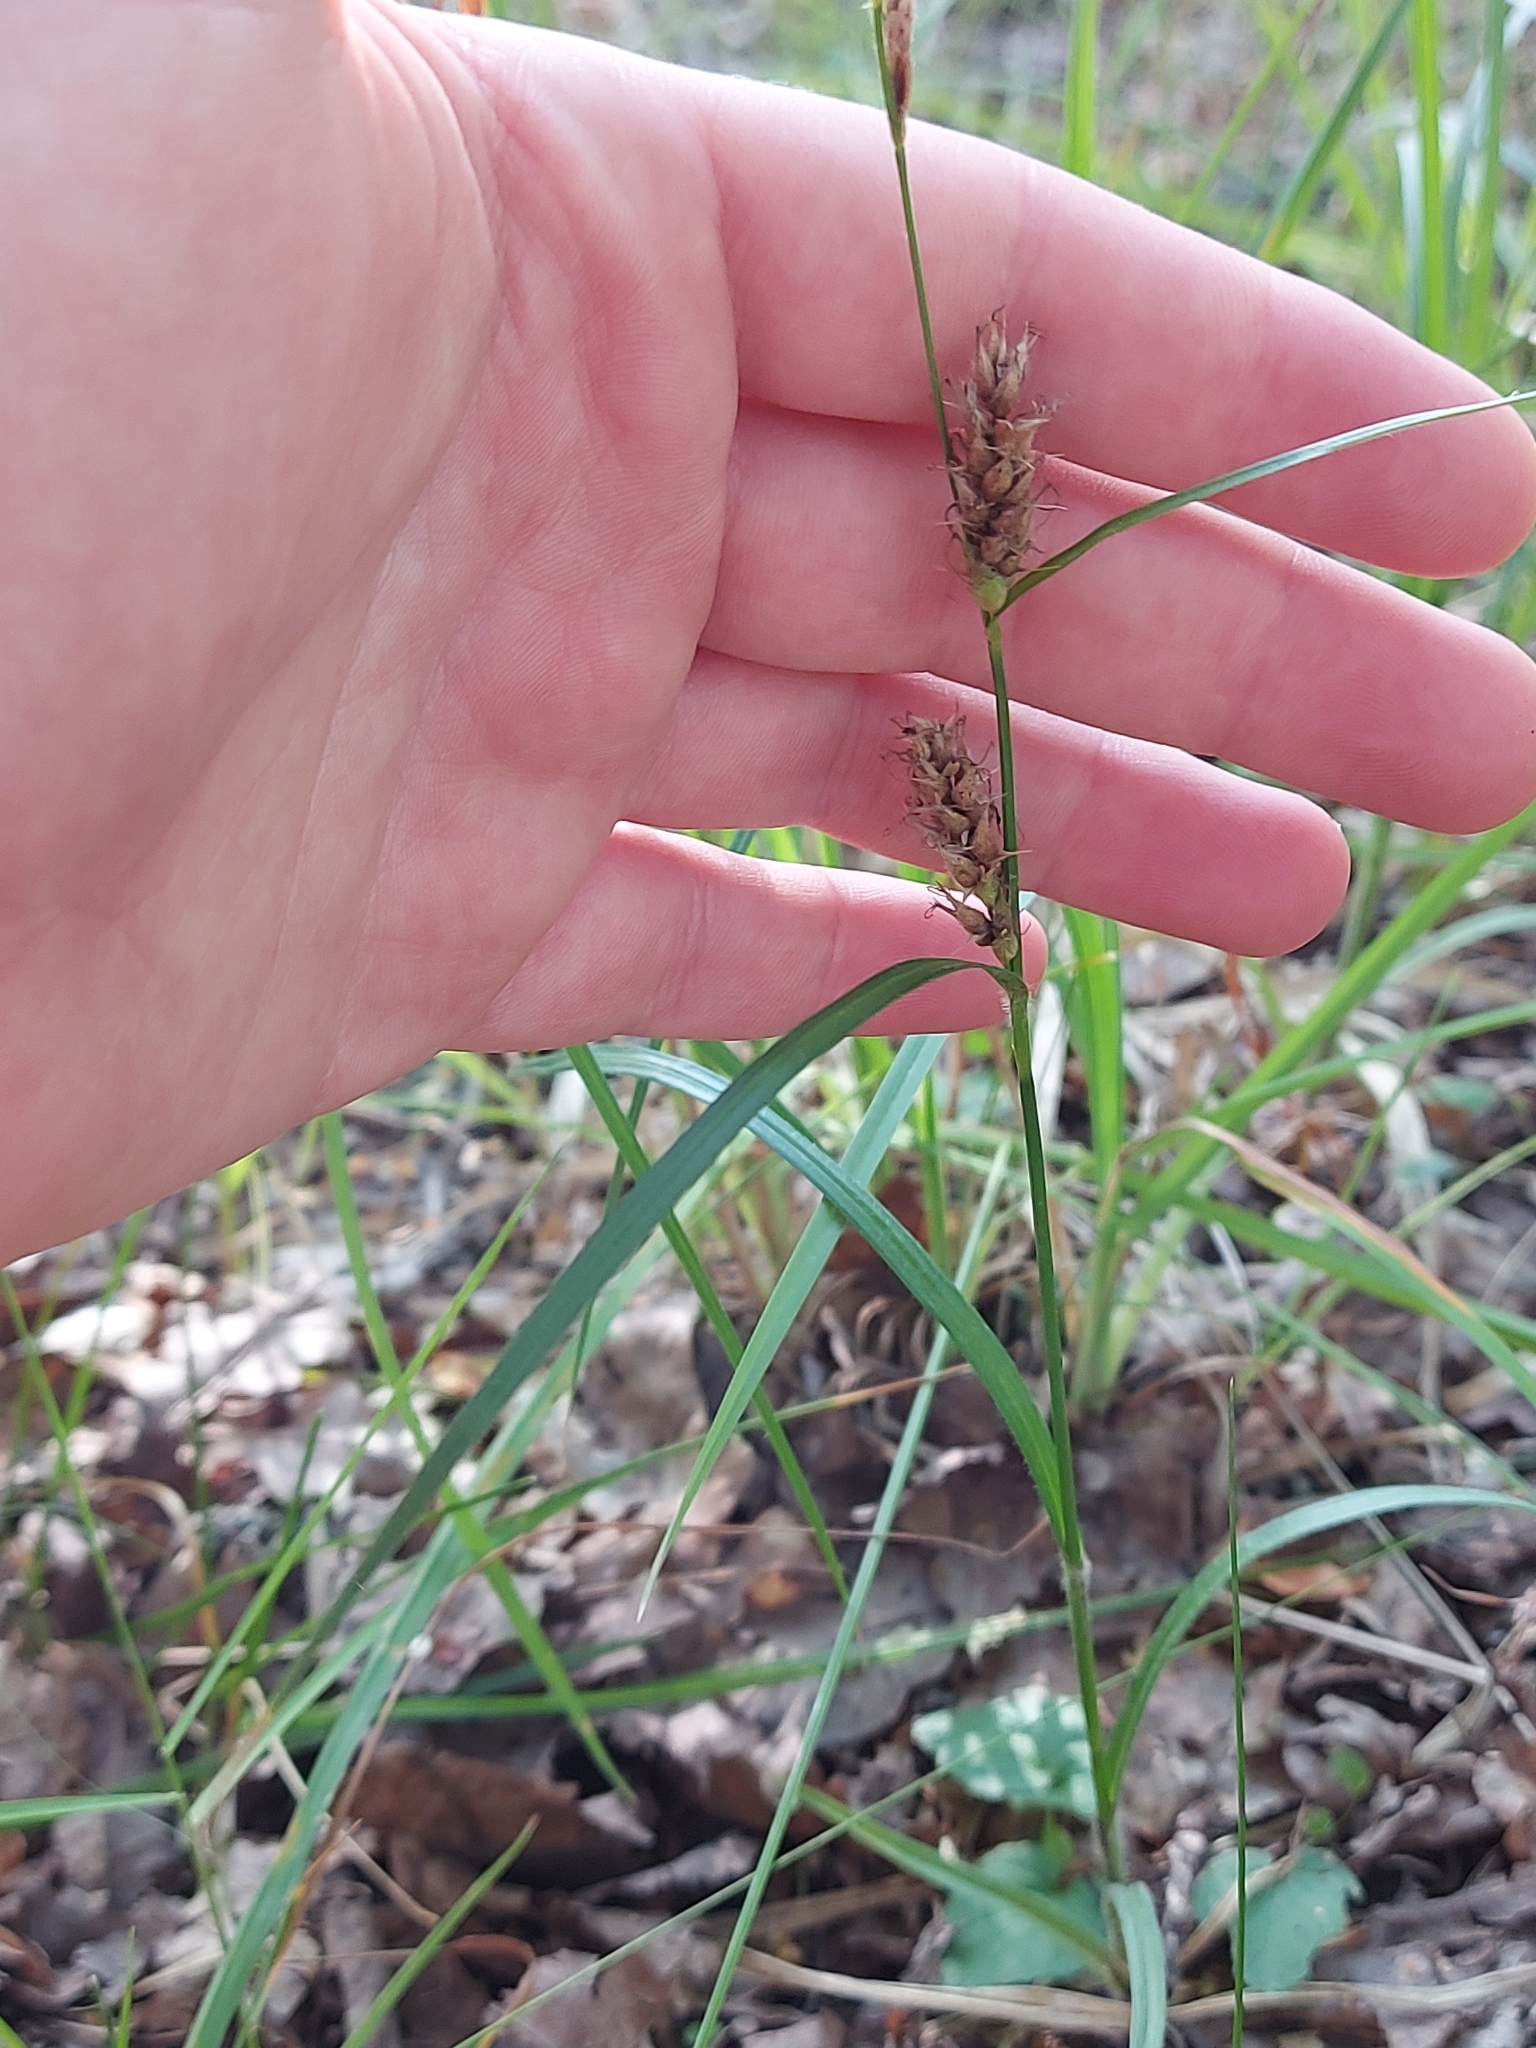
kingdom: Plantae
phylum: Tracheophyta
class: Liliopsida
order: Poales
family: Cyperaceae
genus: Carex
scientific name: Carex hirta
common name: Hairy sedge
